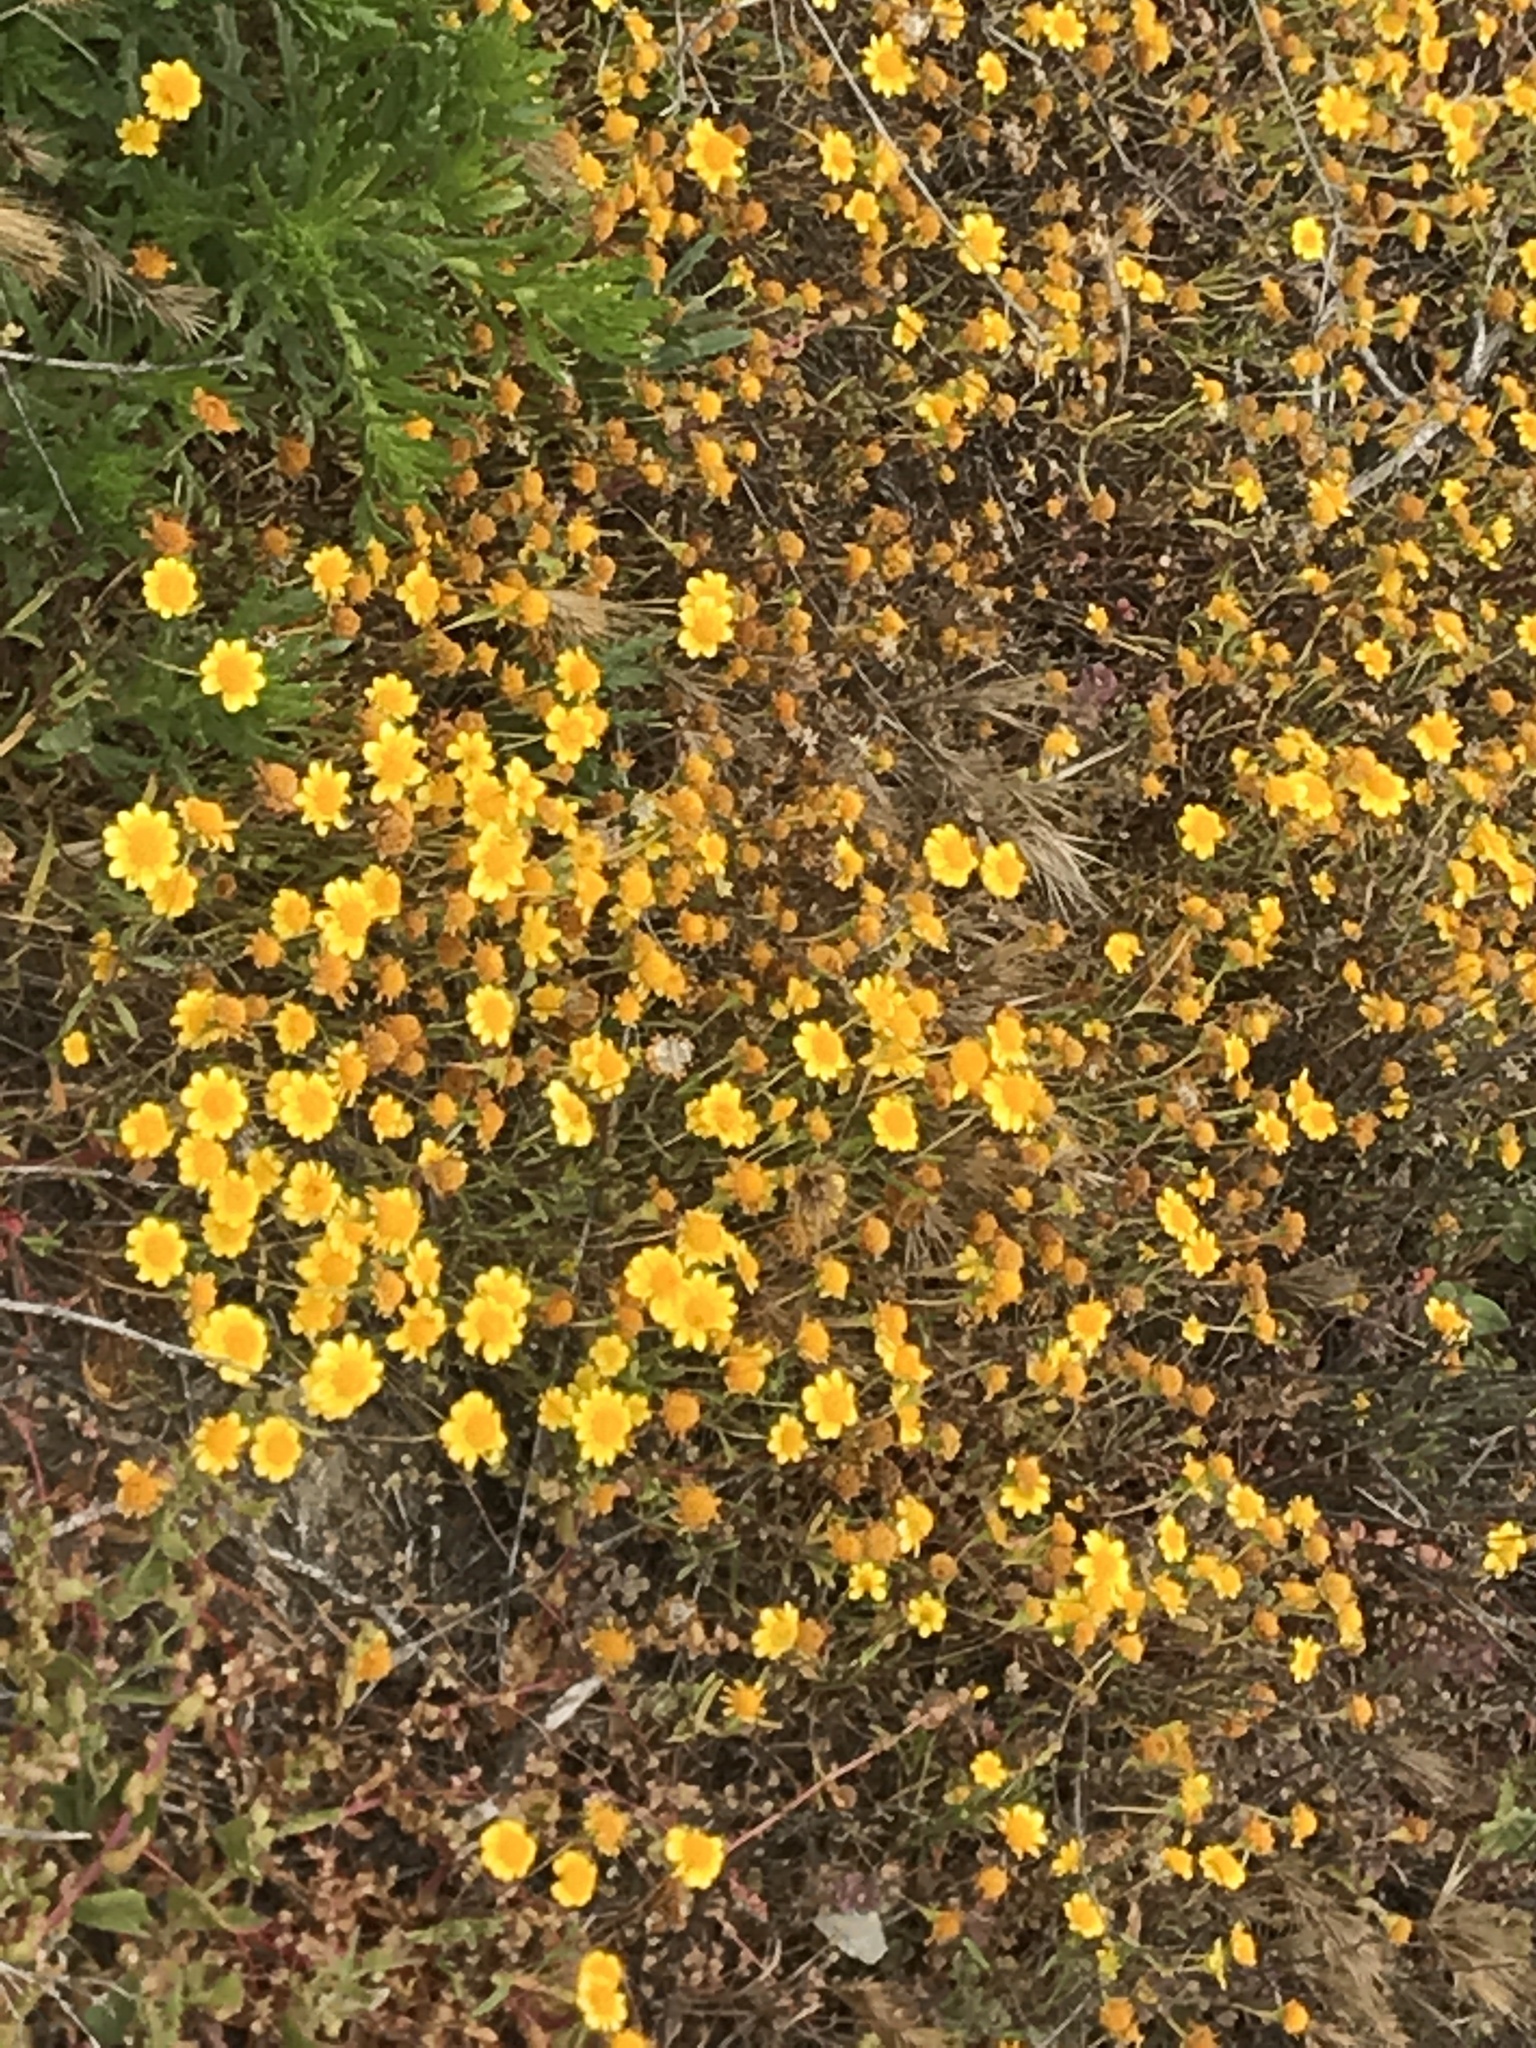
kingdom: Plantae
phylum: Tracheophyta
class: Magnoliopsida
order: Asterales
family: Asteraceae
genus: Lasthenia
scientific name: Lasthenia gracilis
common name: Common goldfields
